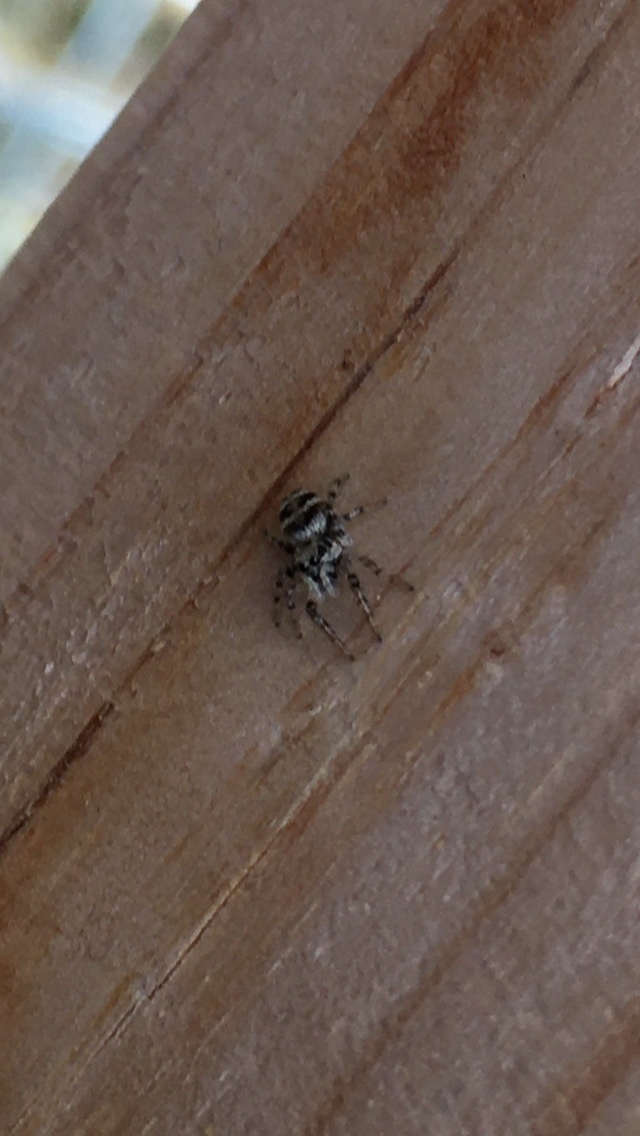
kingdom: Animalia
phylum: Arthropoda
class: Arachnida
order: Araneae
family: Salticidae
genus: Salticus
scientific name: Salticus scenicus
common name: Zebra jumper
